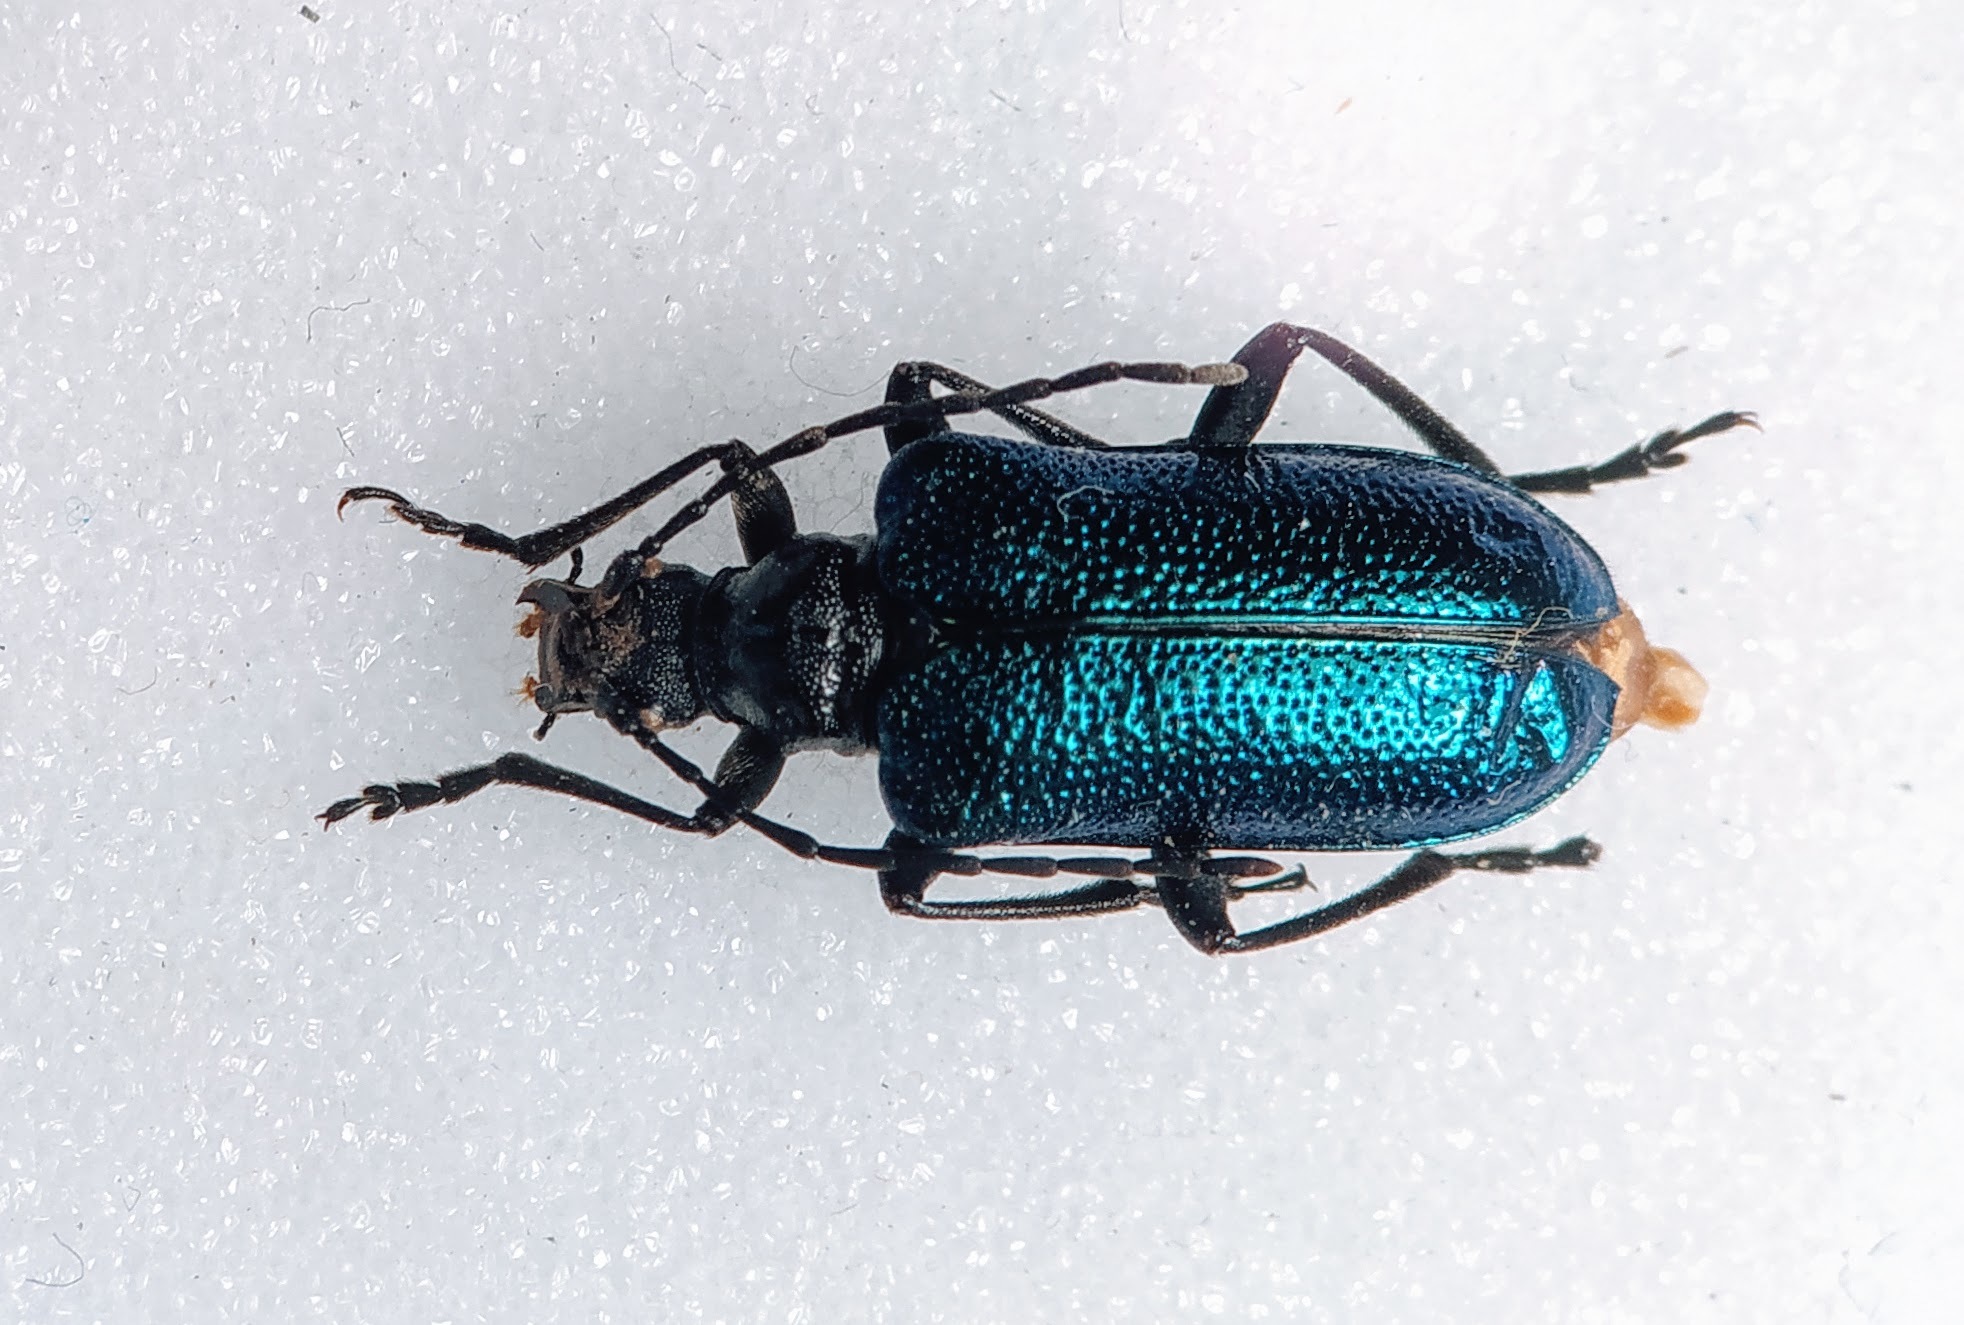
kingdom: Animalia
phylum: Arthropoda
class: Insecta
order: Coleoptera
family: Cerambycidae
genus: Gaurotes
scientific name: Gaurotes virginea
